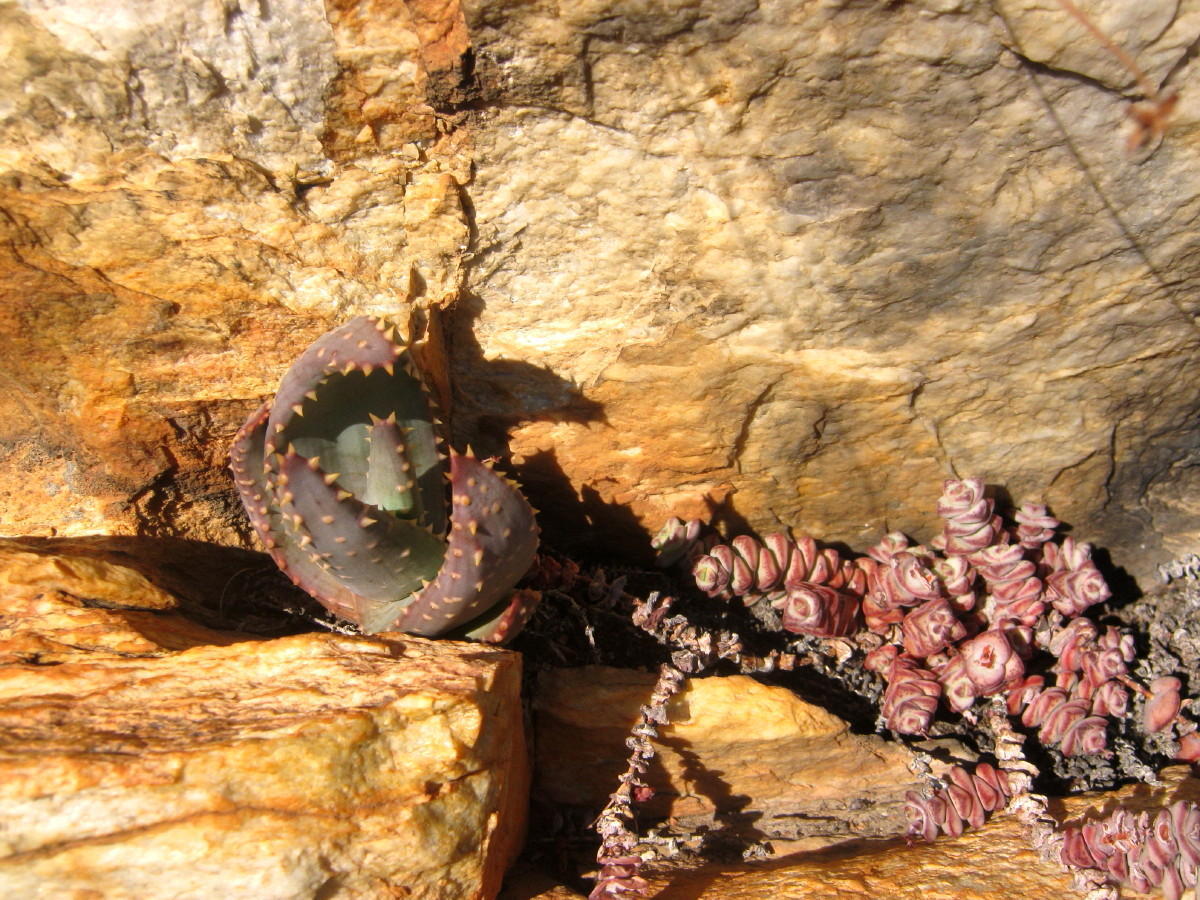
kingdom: Plantae
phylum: Tracheophyta
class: Magnoliopsida
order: Saxifragales
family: Crassulaceae
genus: Crassula
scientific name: Crassula perforata
